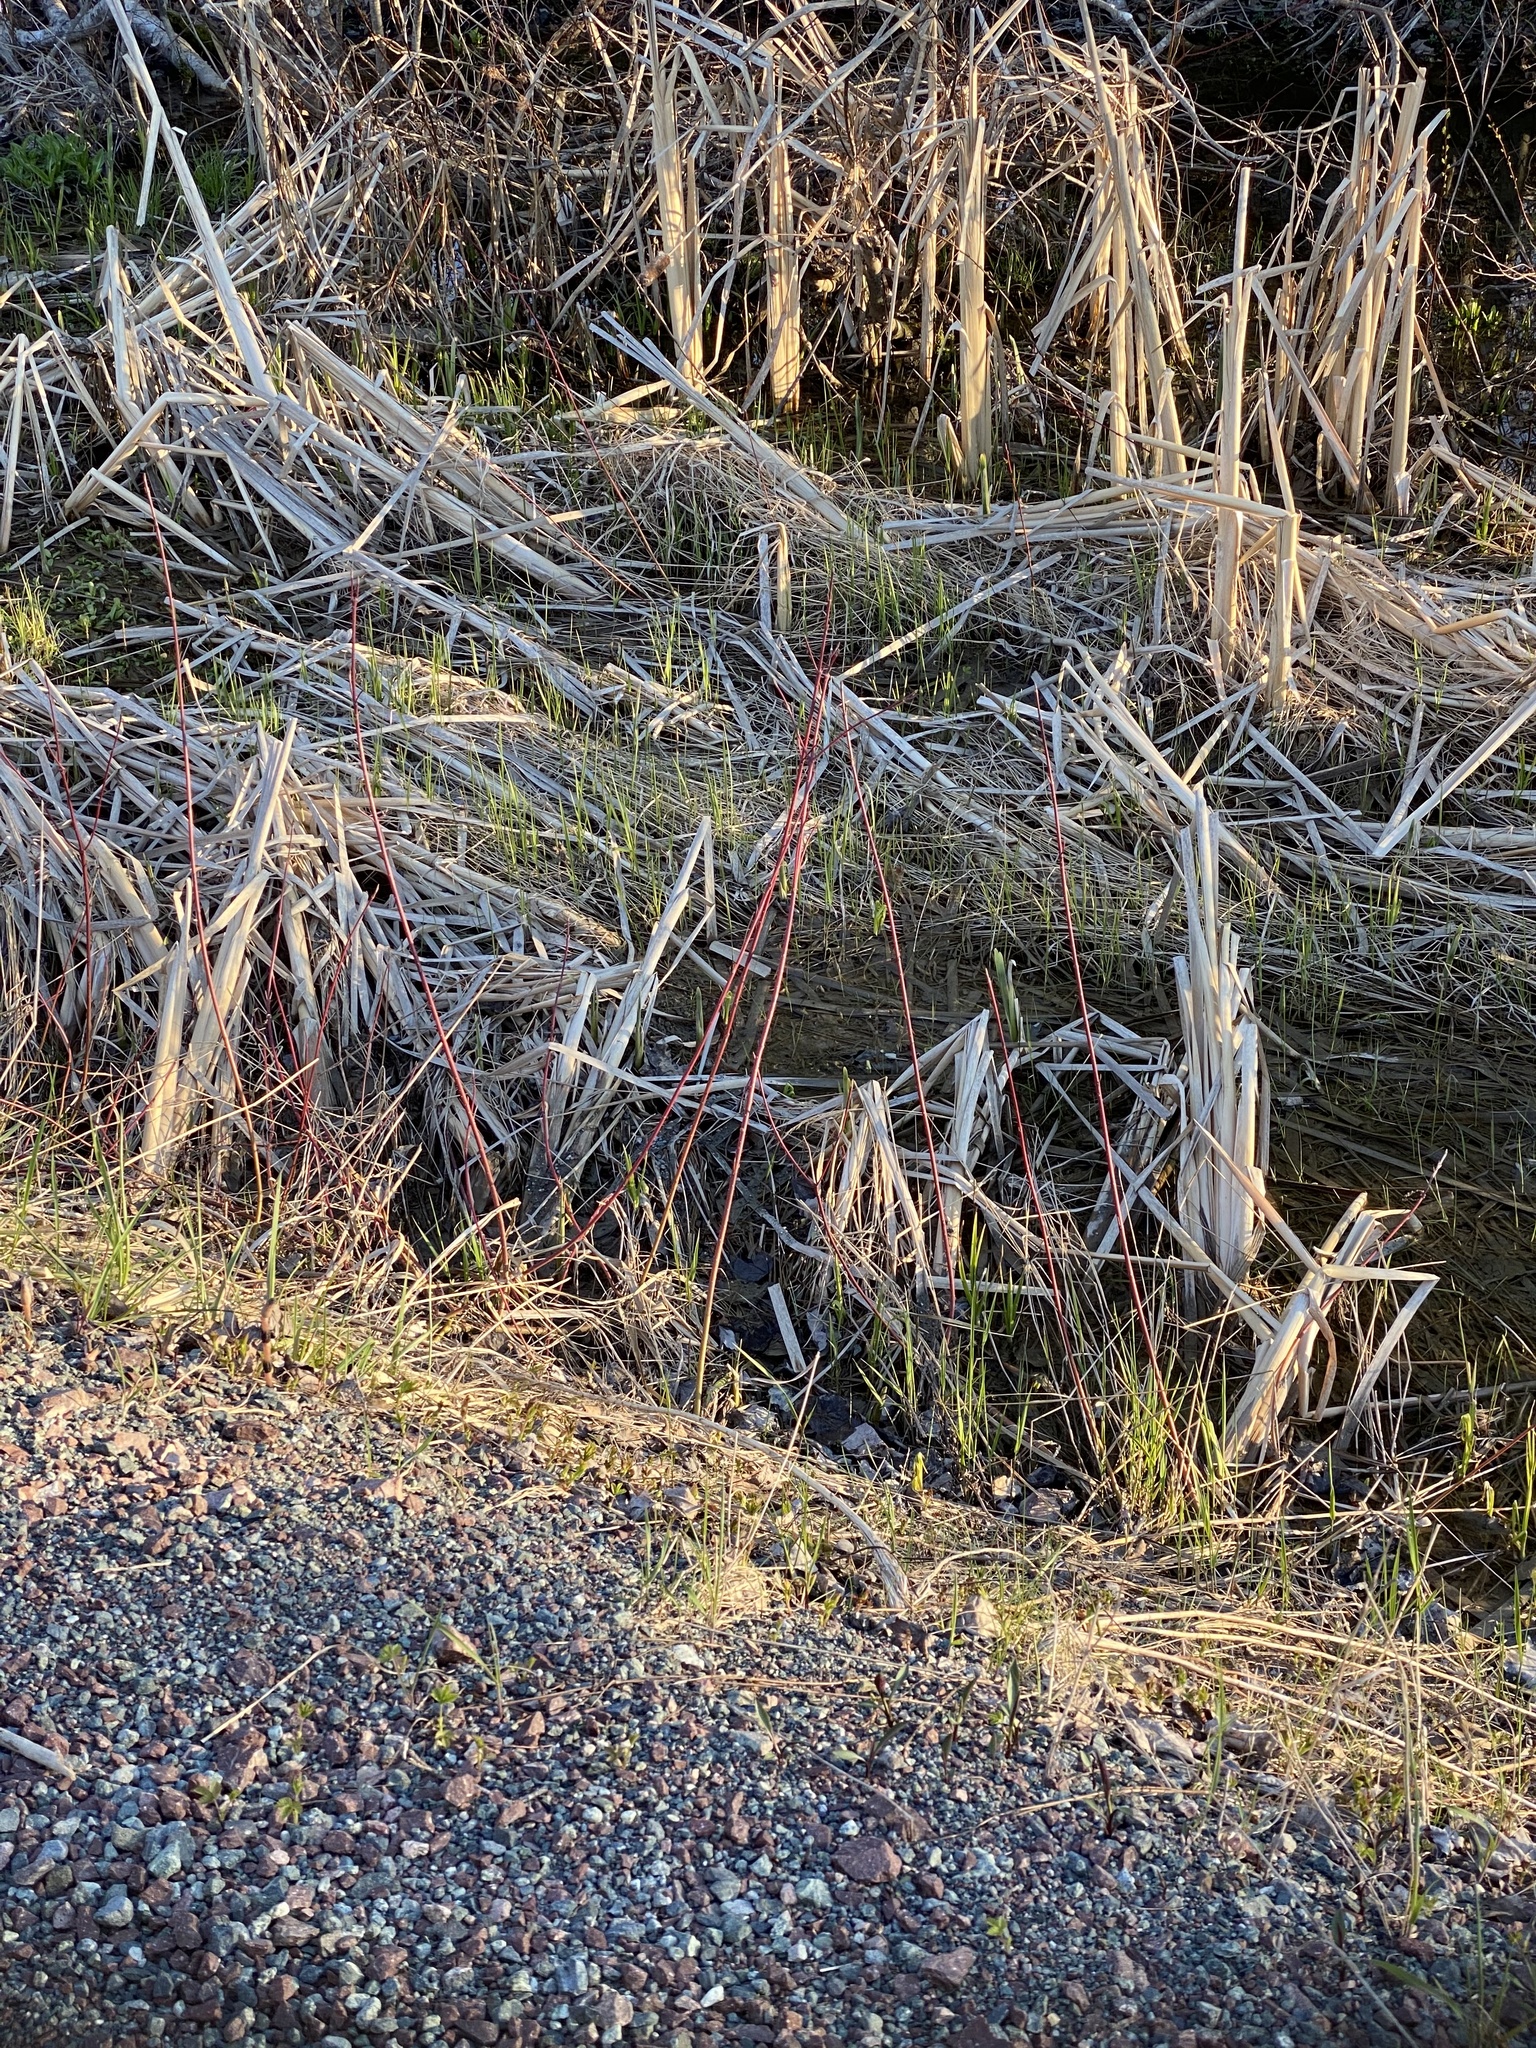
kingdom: Plantae
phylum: Tracheophyta
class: Magnoliopsida
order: Cornales
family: Cornaceae
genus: Cornus
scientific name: Cornus sericea
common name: Red-osier dogwood
